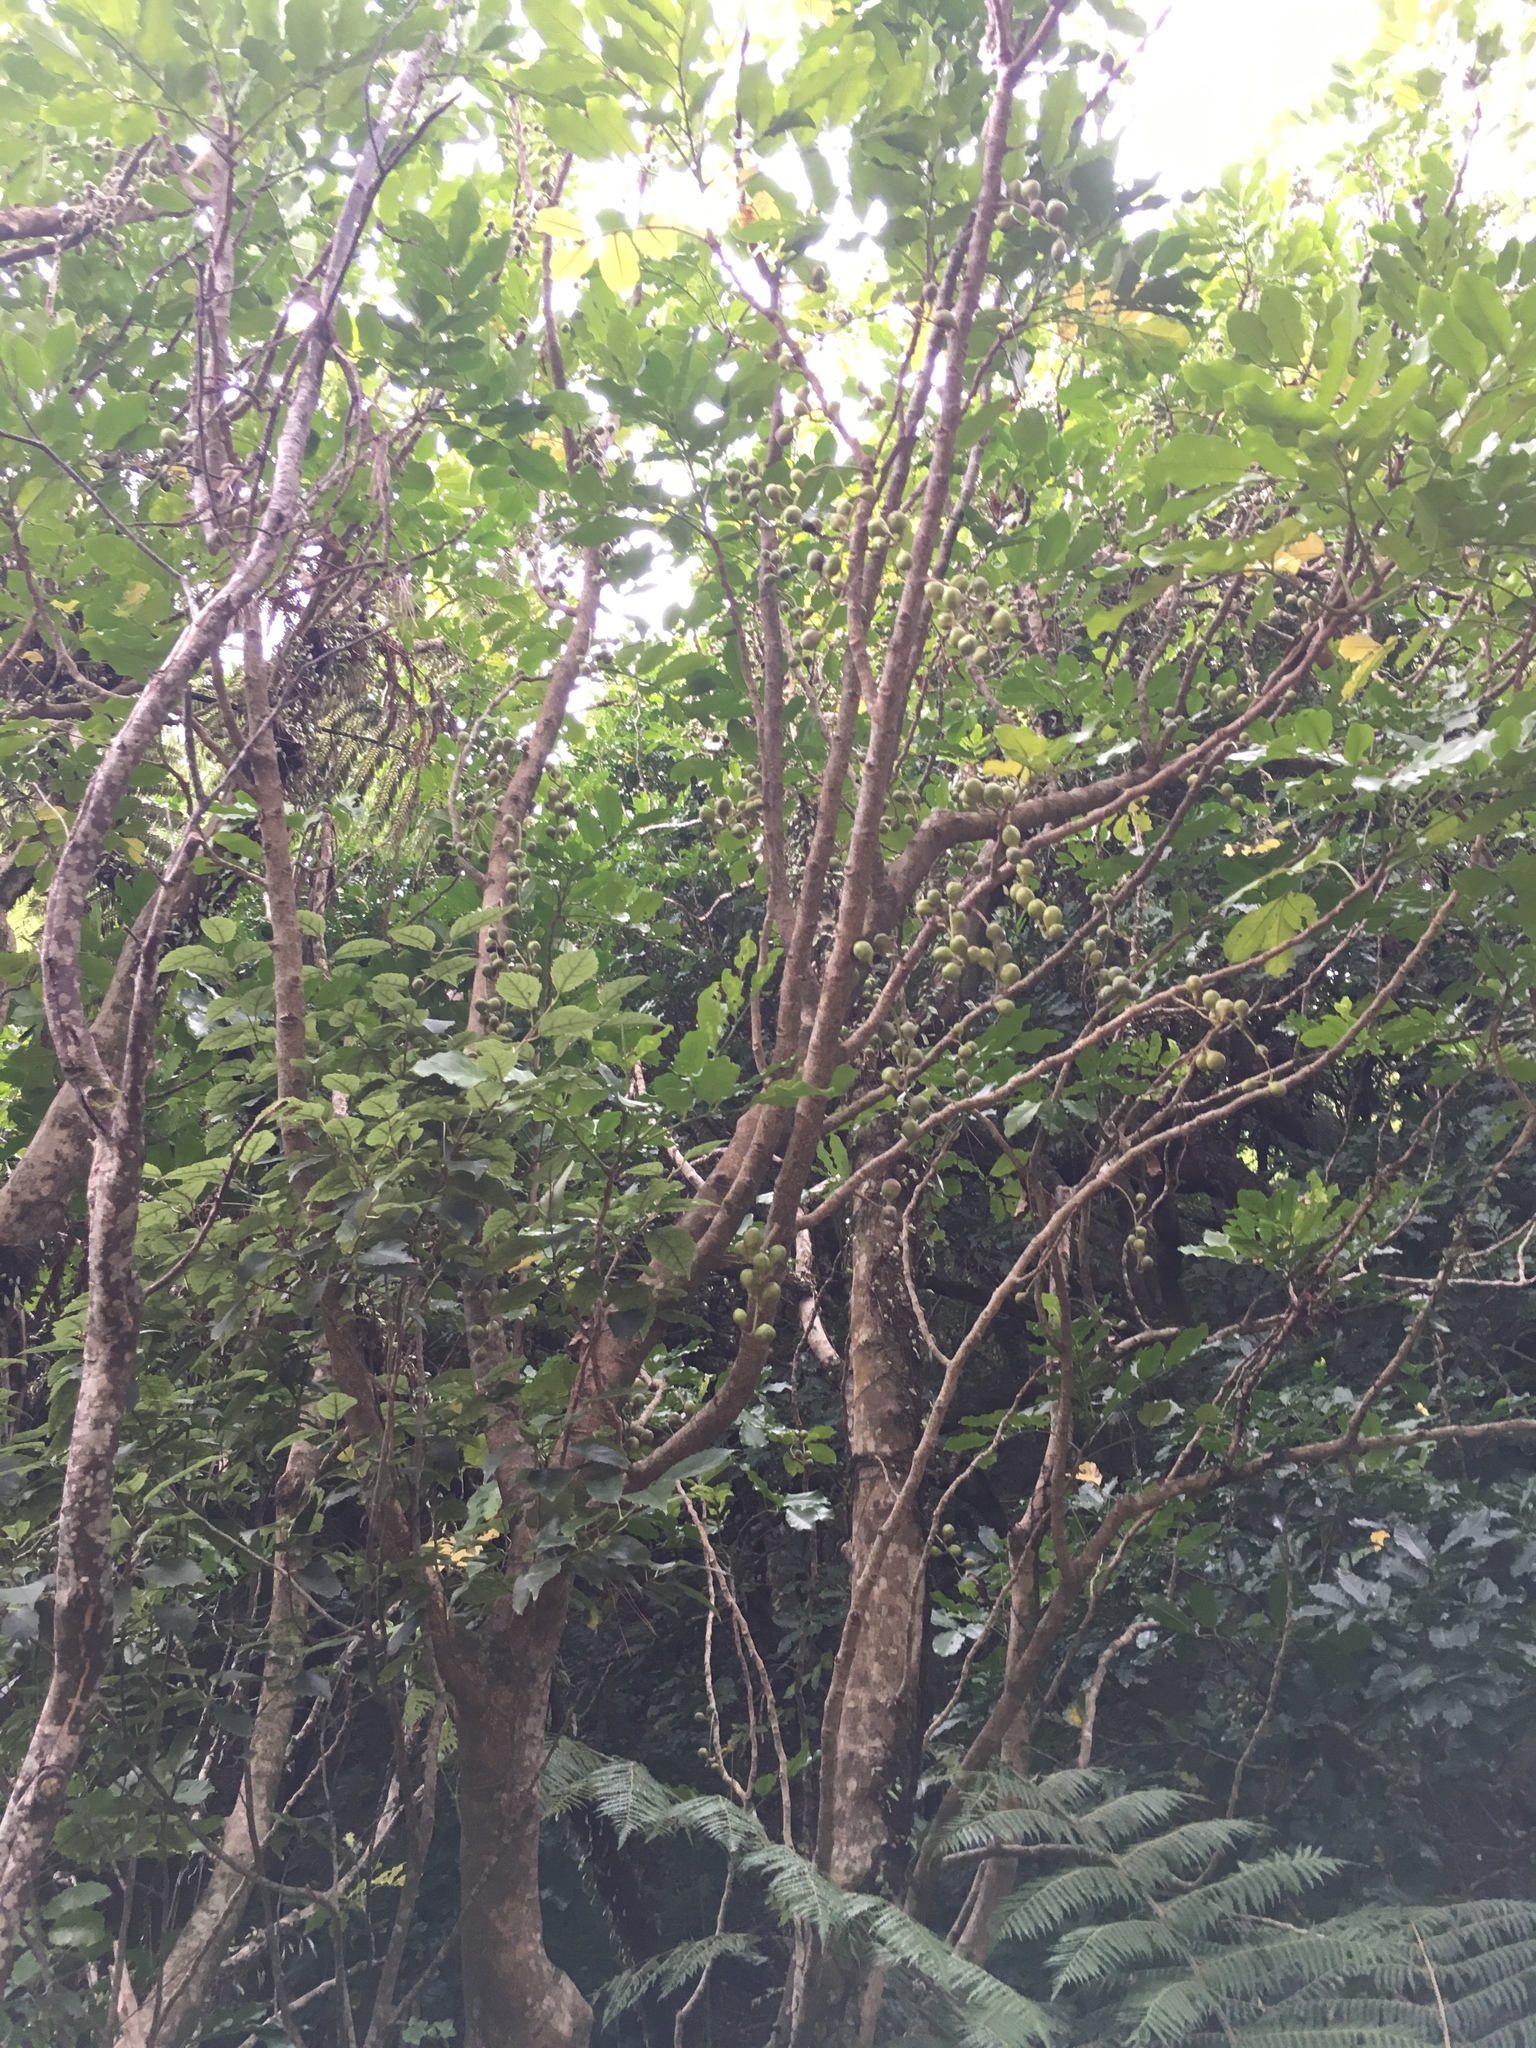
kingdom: Plantae
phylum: Tracheophyta
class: Magnoliopsida
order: Sapindales
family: Meliaceae
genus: Didymocheton
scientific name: Didymocheton spectabilis
